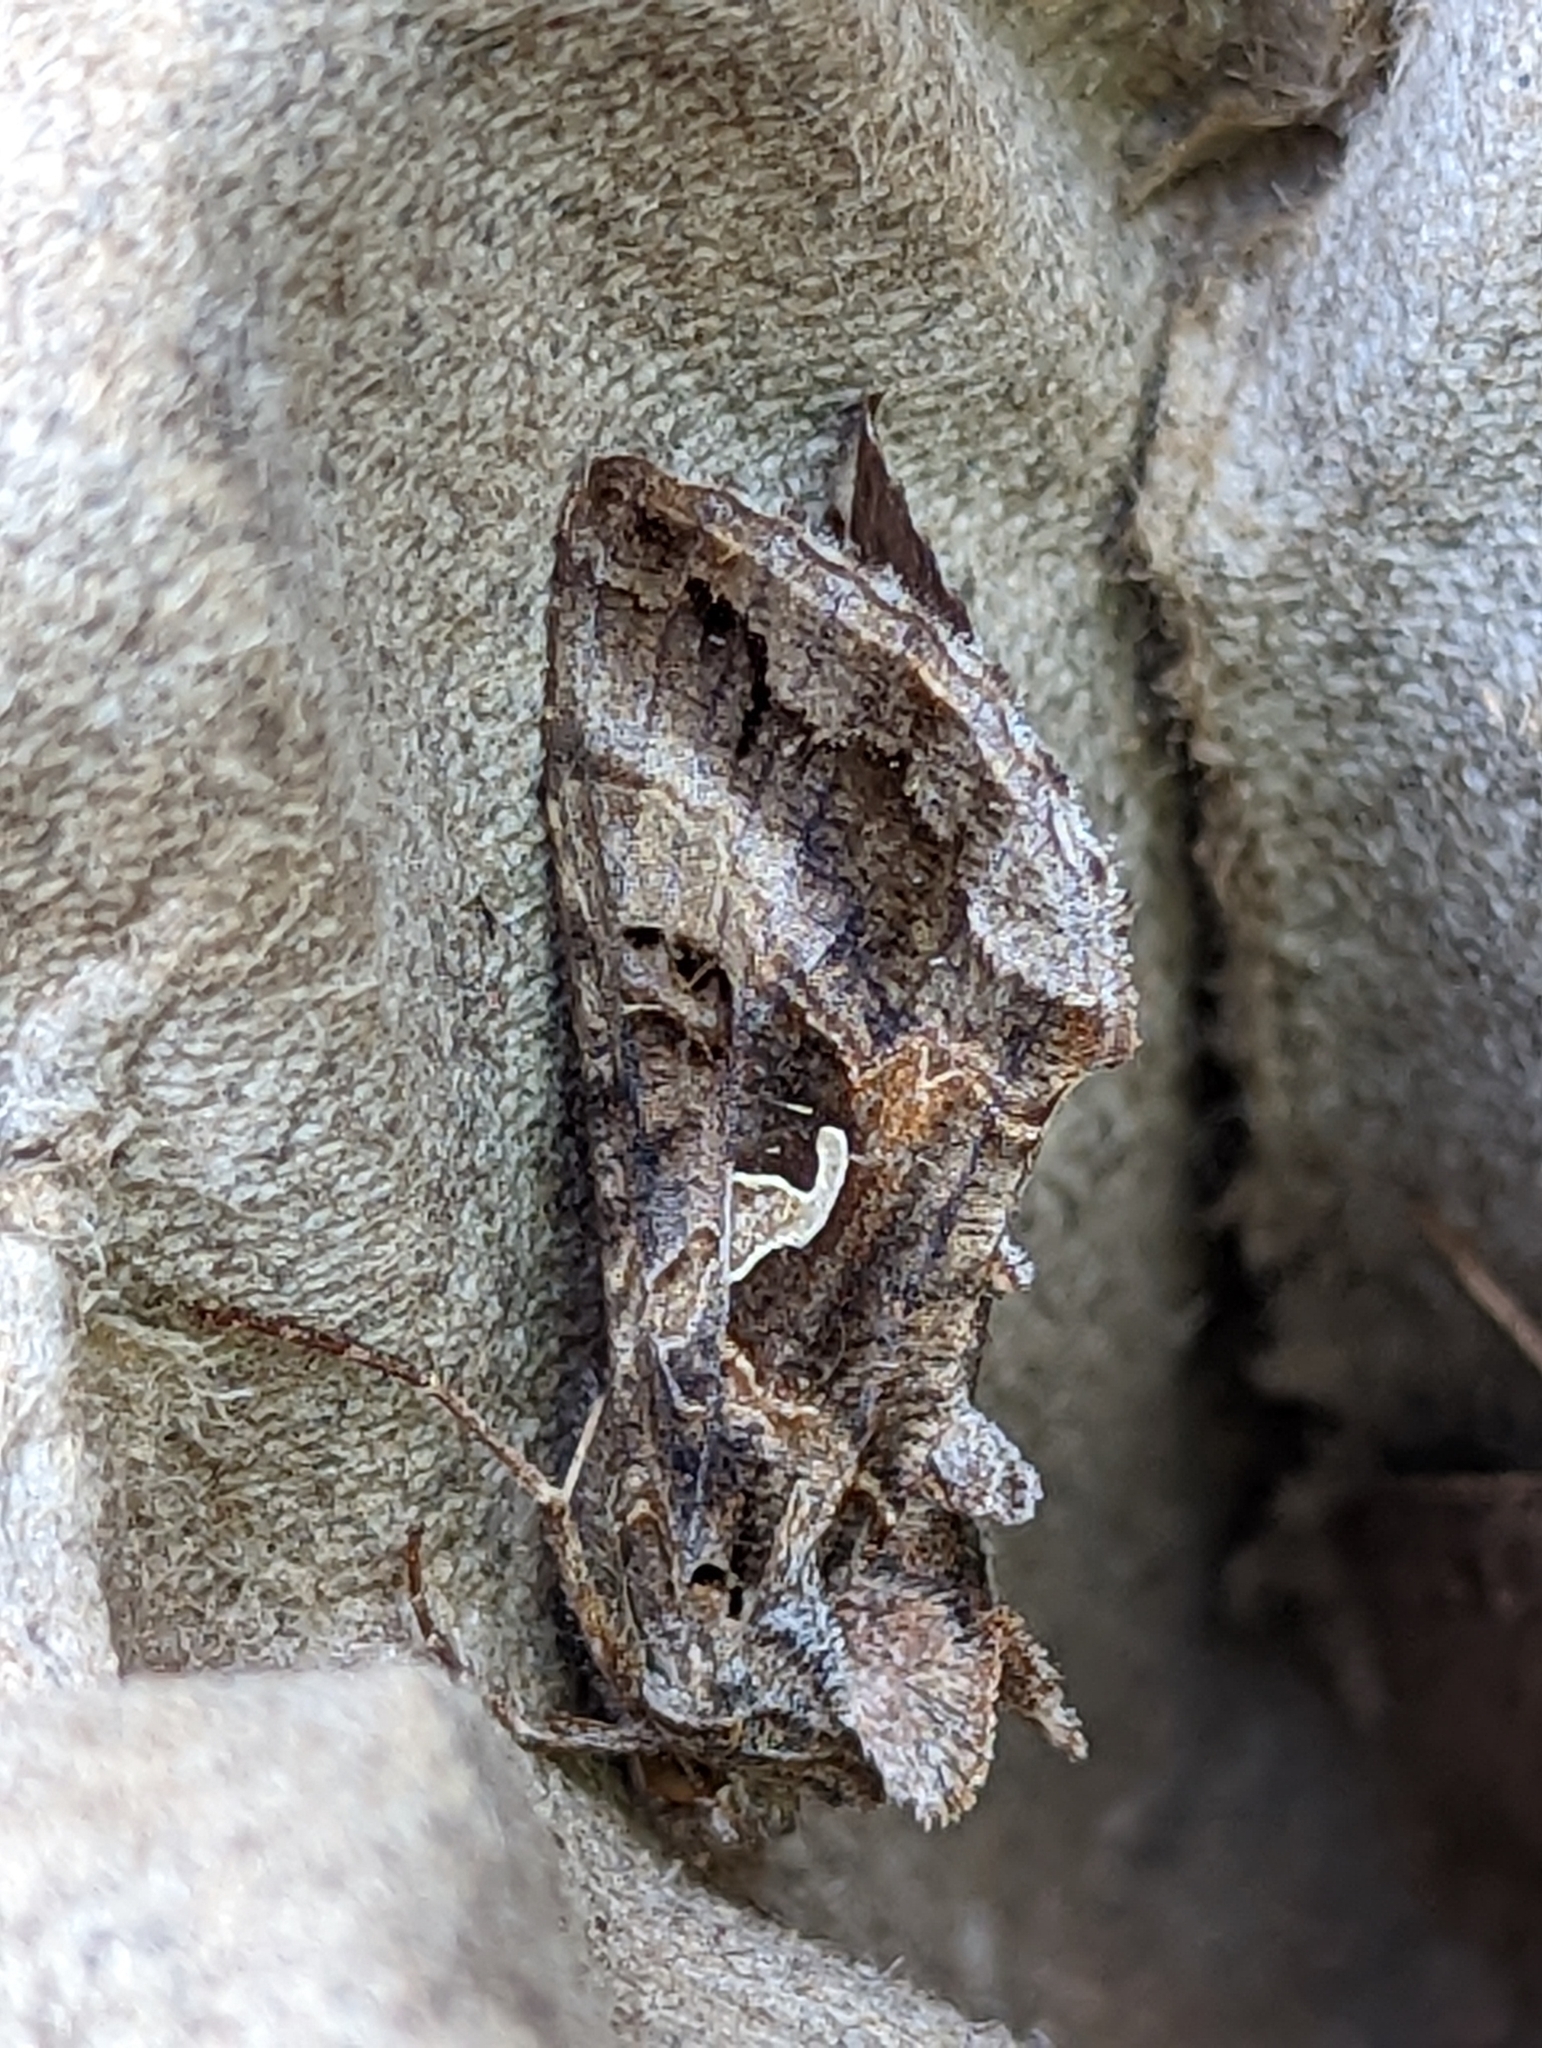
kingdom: Animalia
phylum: Arthropoda
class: Insecta
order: Lepidoptera
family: Noctuidae
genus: Autographa
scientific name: Autographa gamma
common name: Silver y
